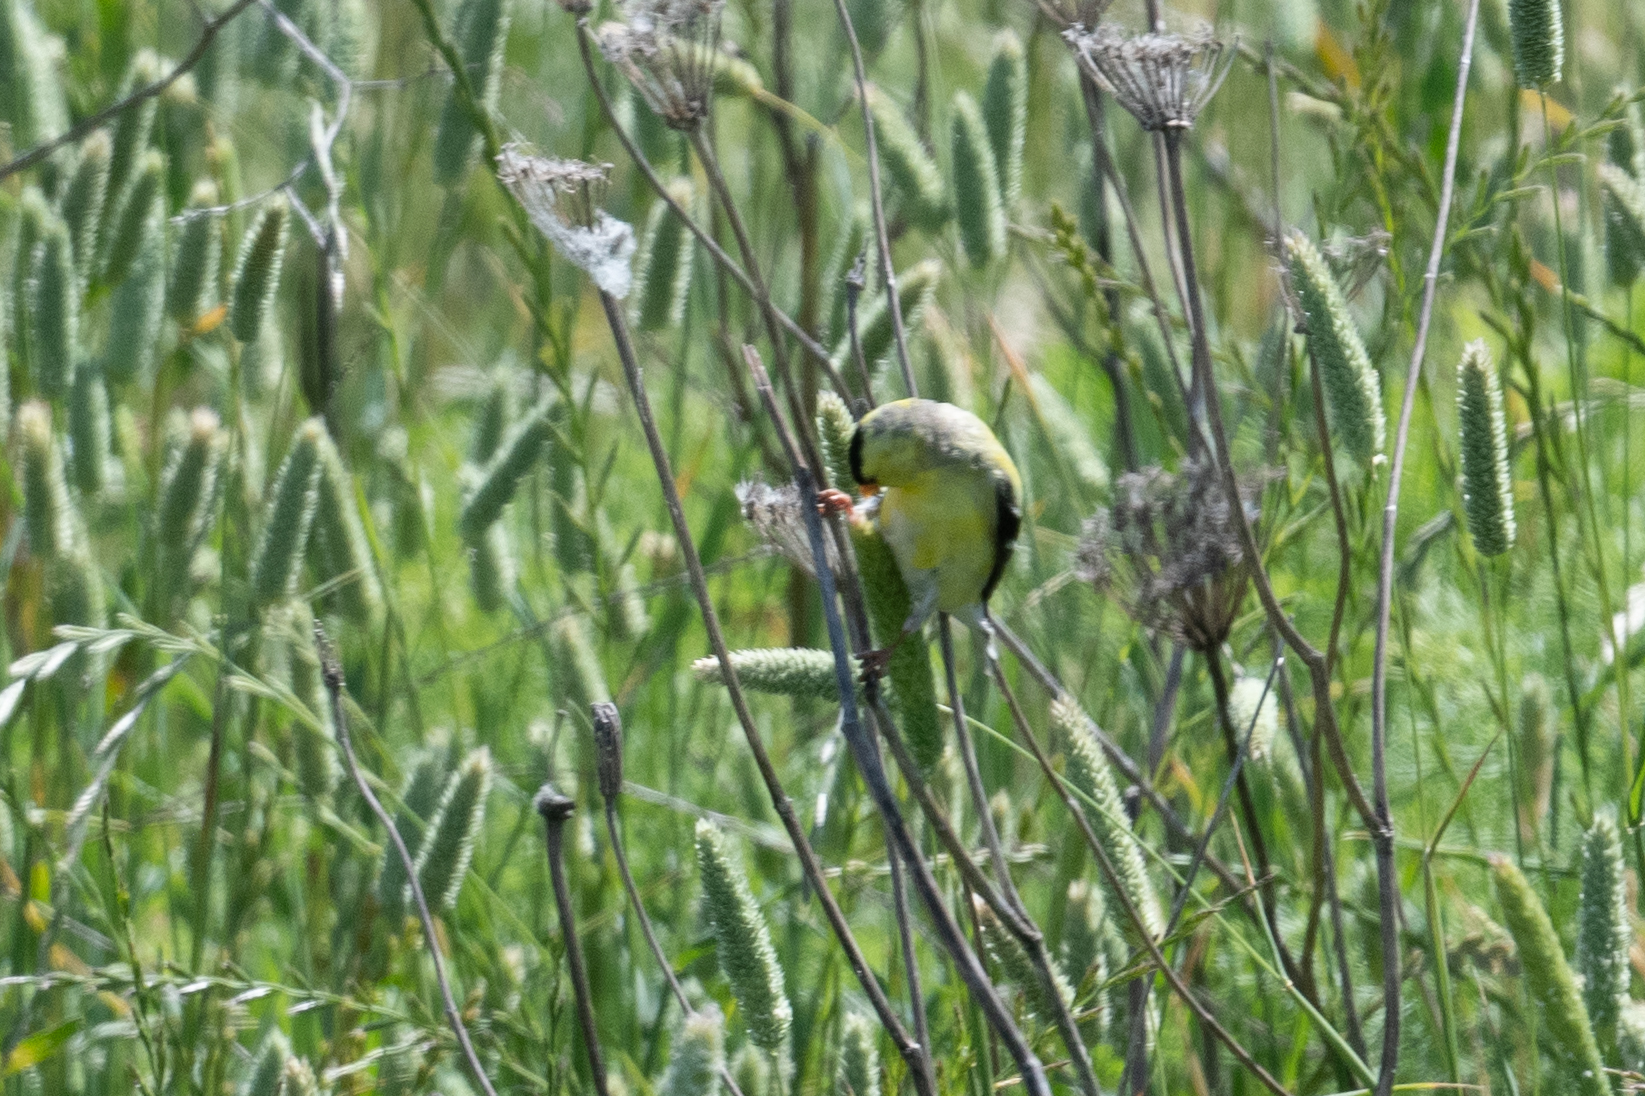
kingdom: Animalia
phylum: Chordata
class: Aves
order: Passeriformes
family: Fringillidae
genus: Spinus
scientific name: Spinus tristis
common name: American goldfinch
